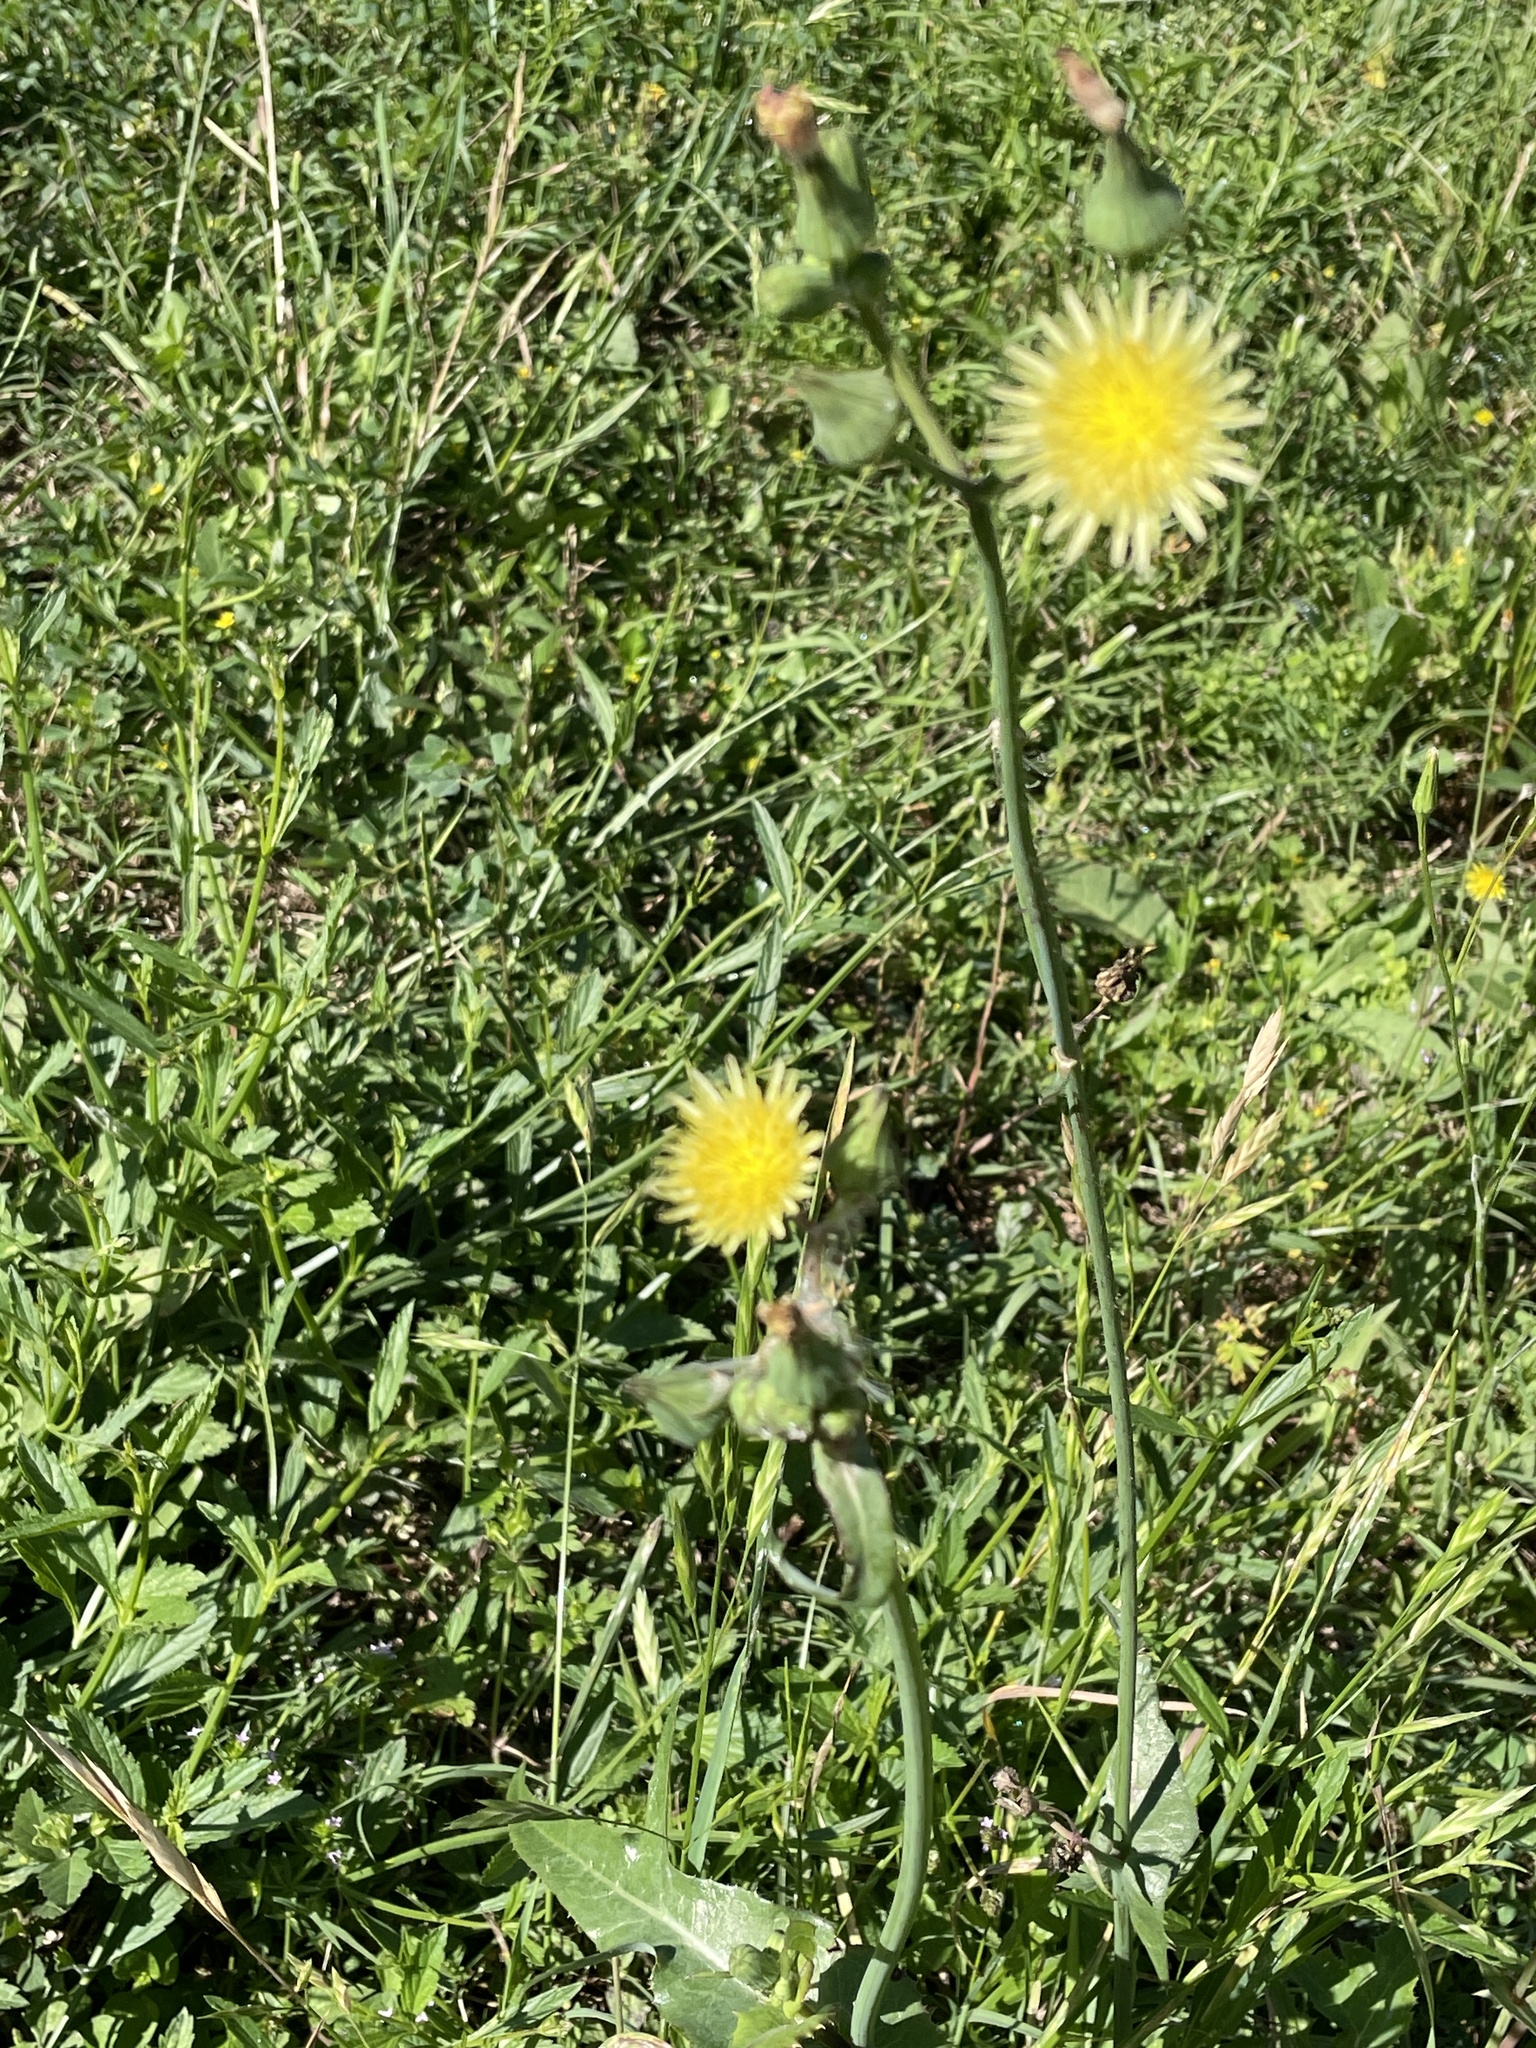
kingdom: Plantae
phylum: Tracheophyta
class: Magnoliopsida
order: Asterales
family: Asteraceae
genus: Sonchus
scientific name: Sonchus oleraceus
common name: Common sowthistle
